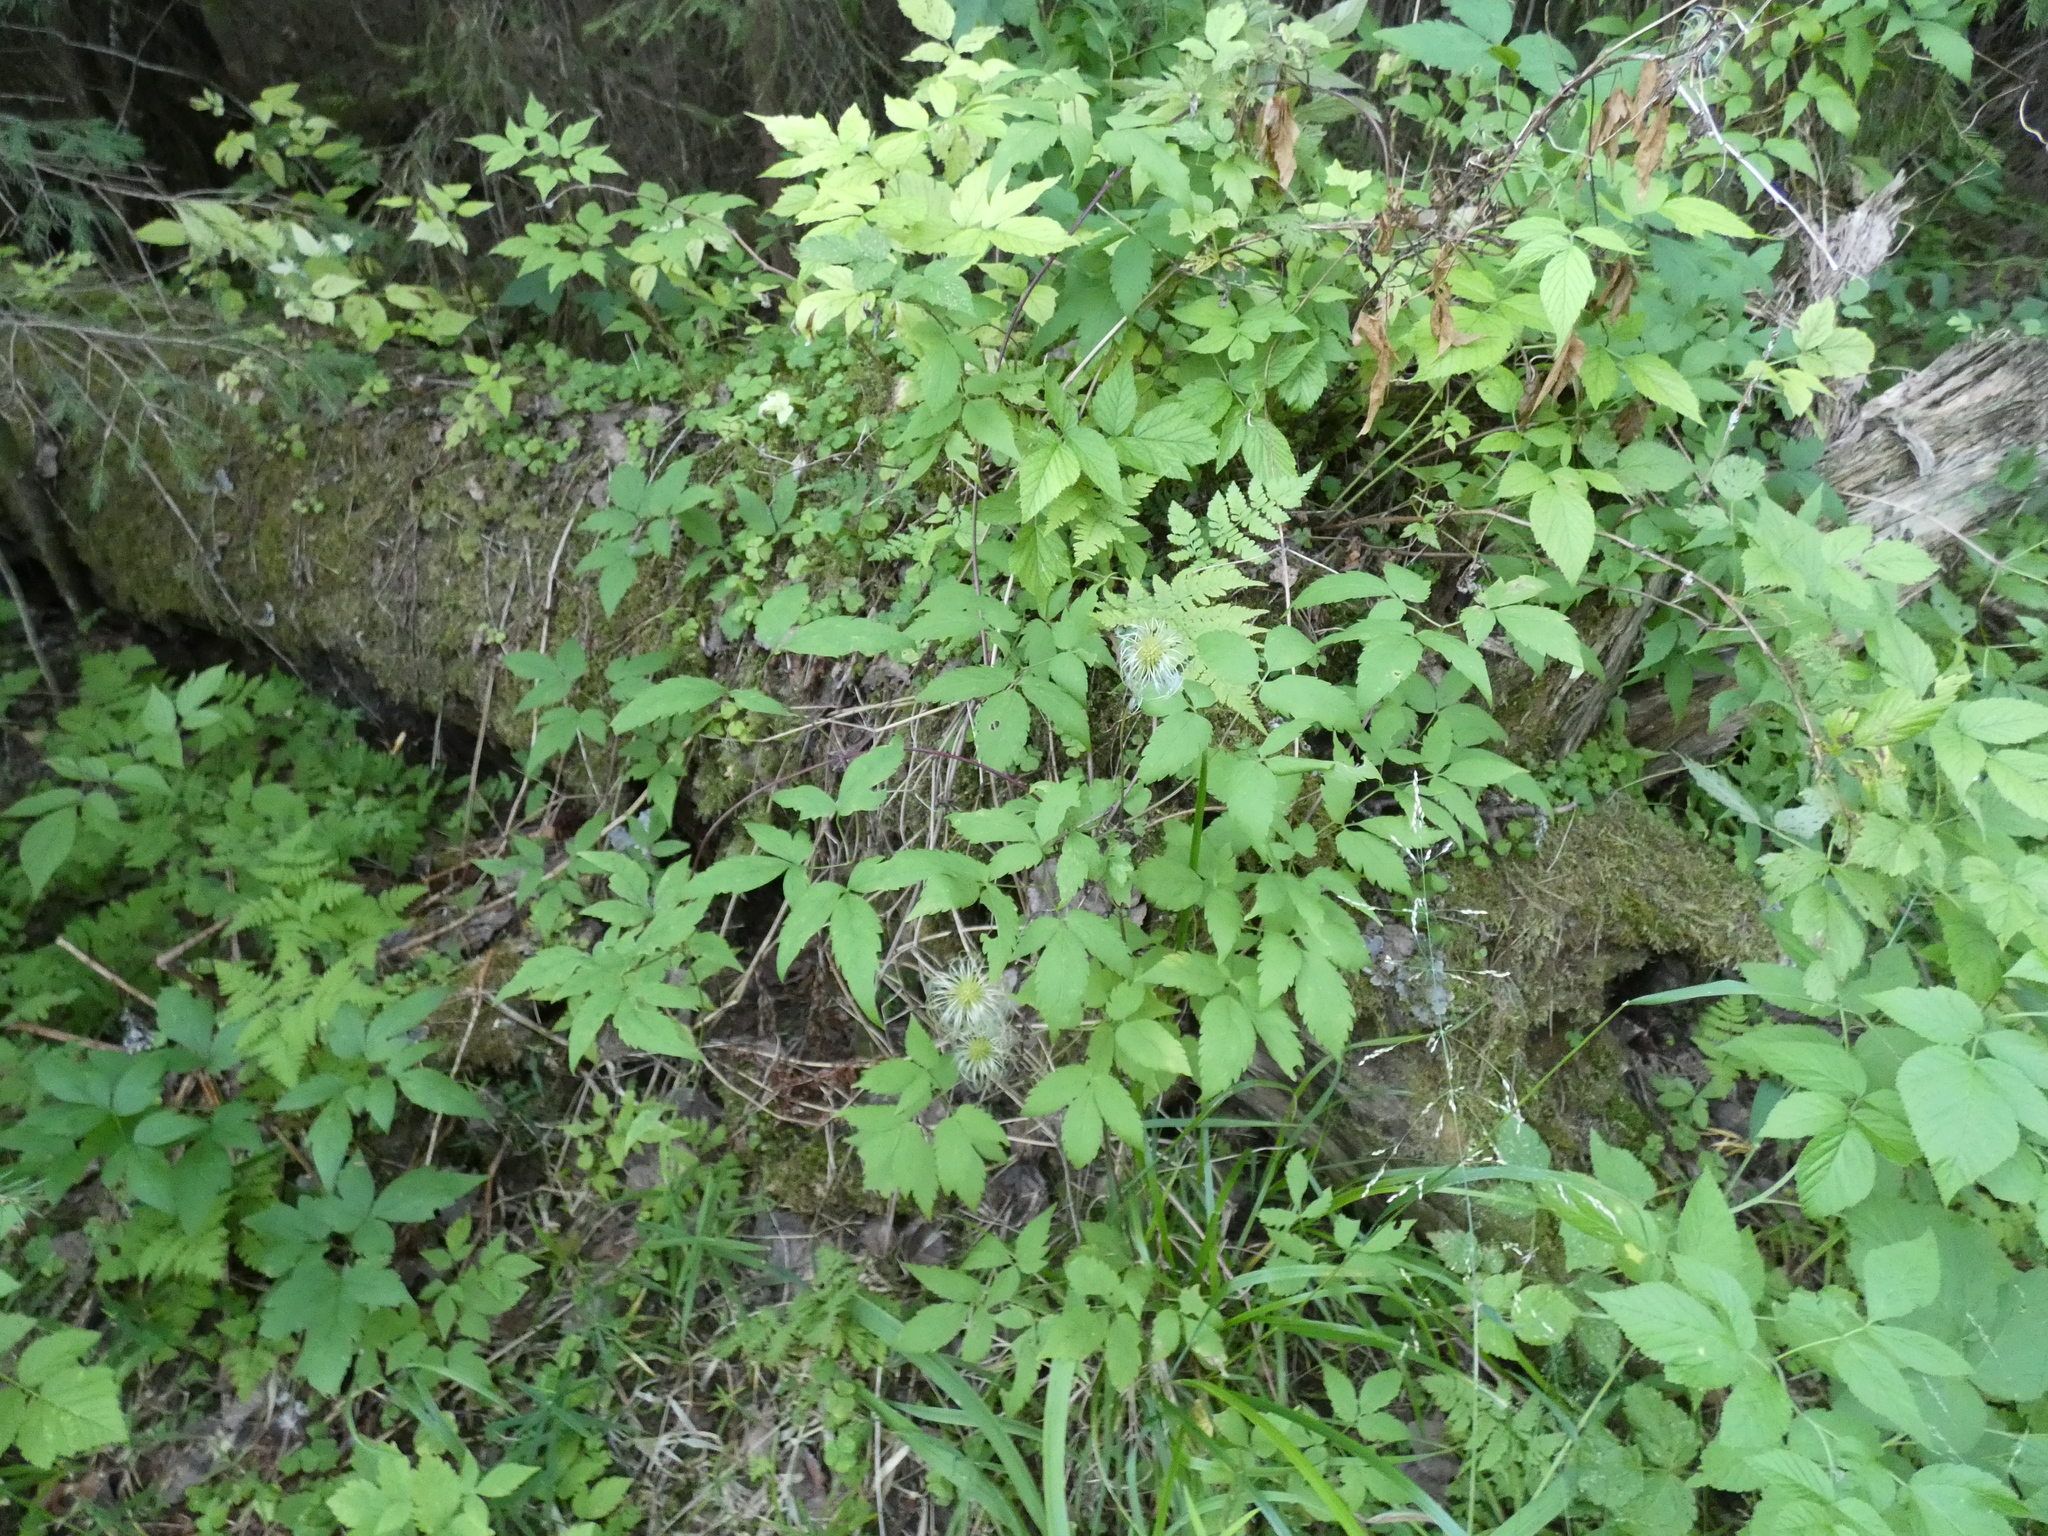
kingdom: Plantae
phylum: Tracheophyta
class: Magnoliopsida
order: Ranunculales
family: Ranunculaceae
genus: Clematis
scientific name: Clematis sibirica
